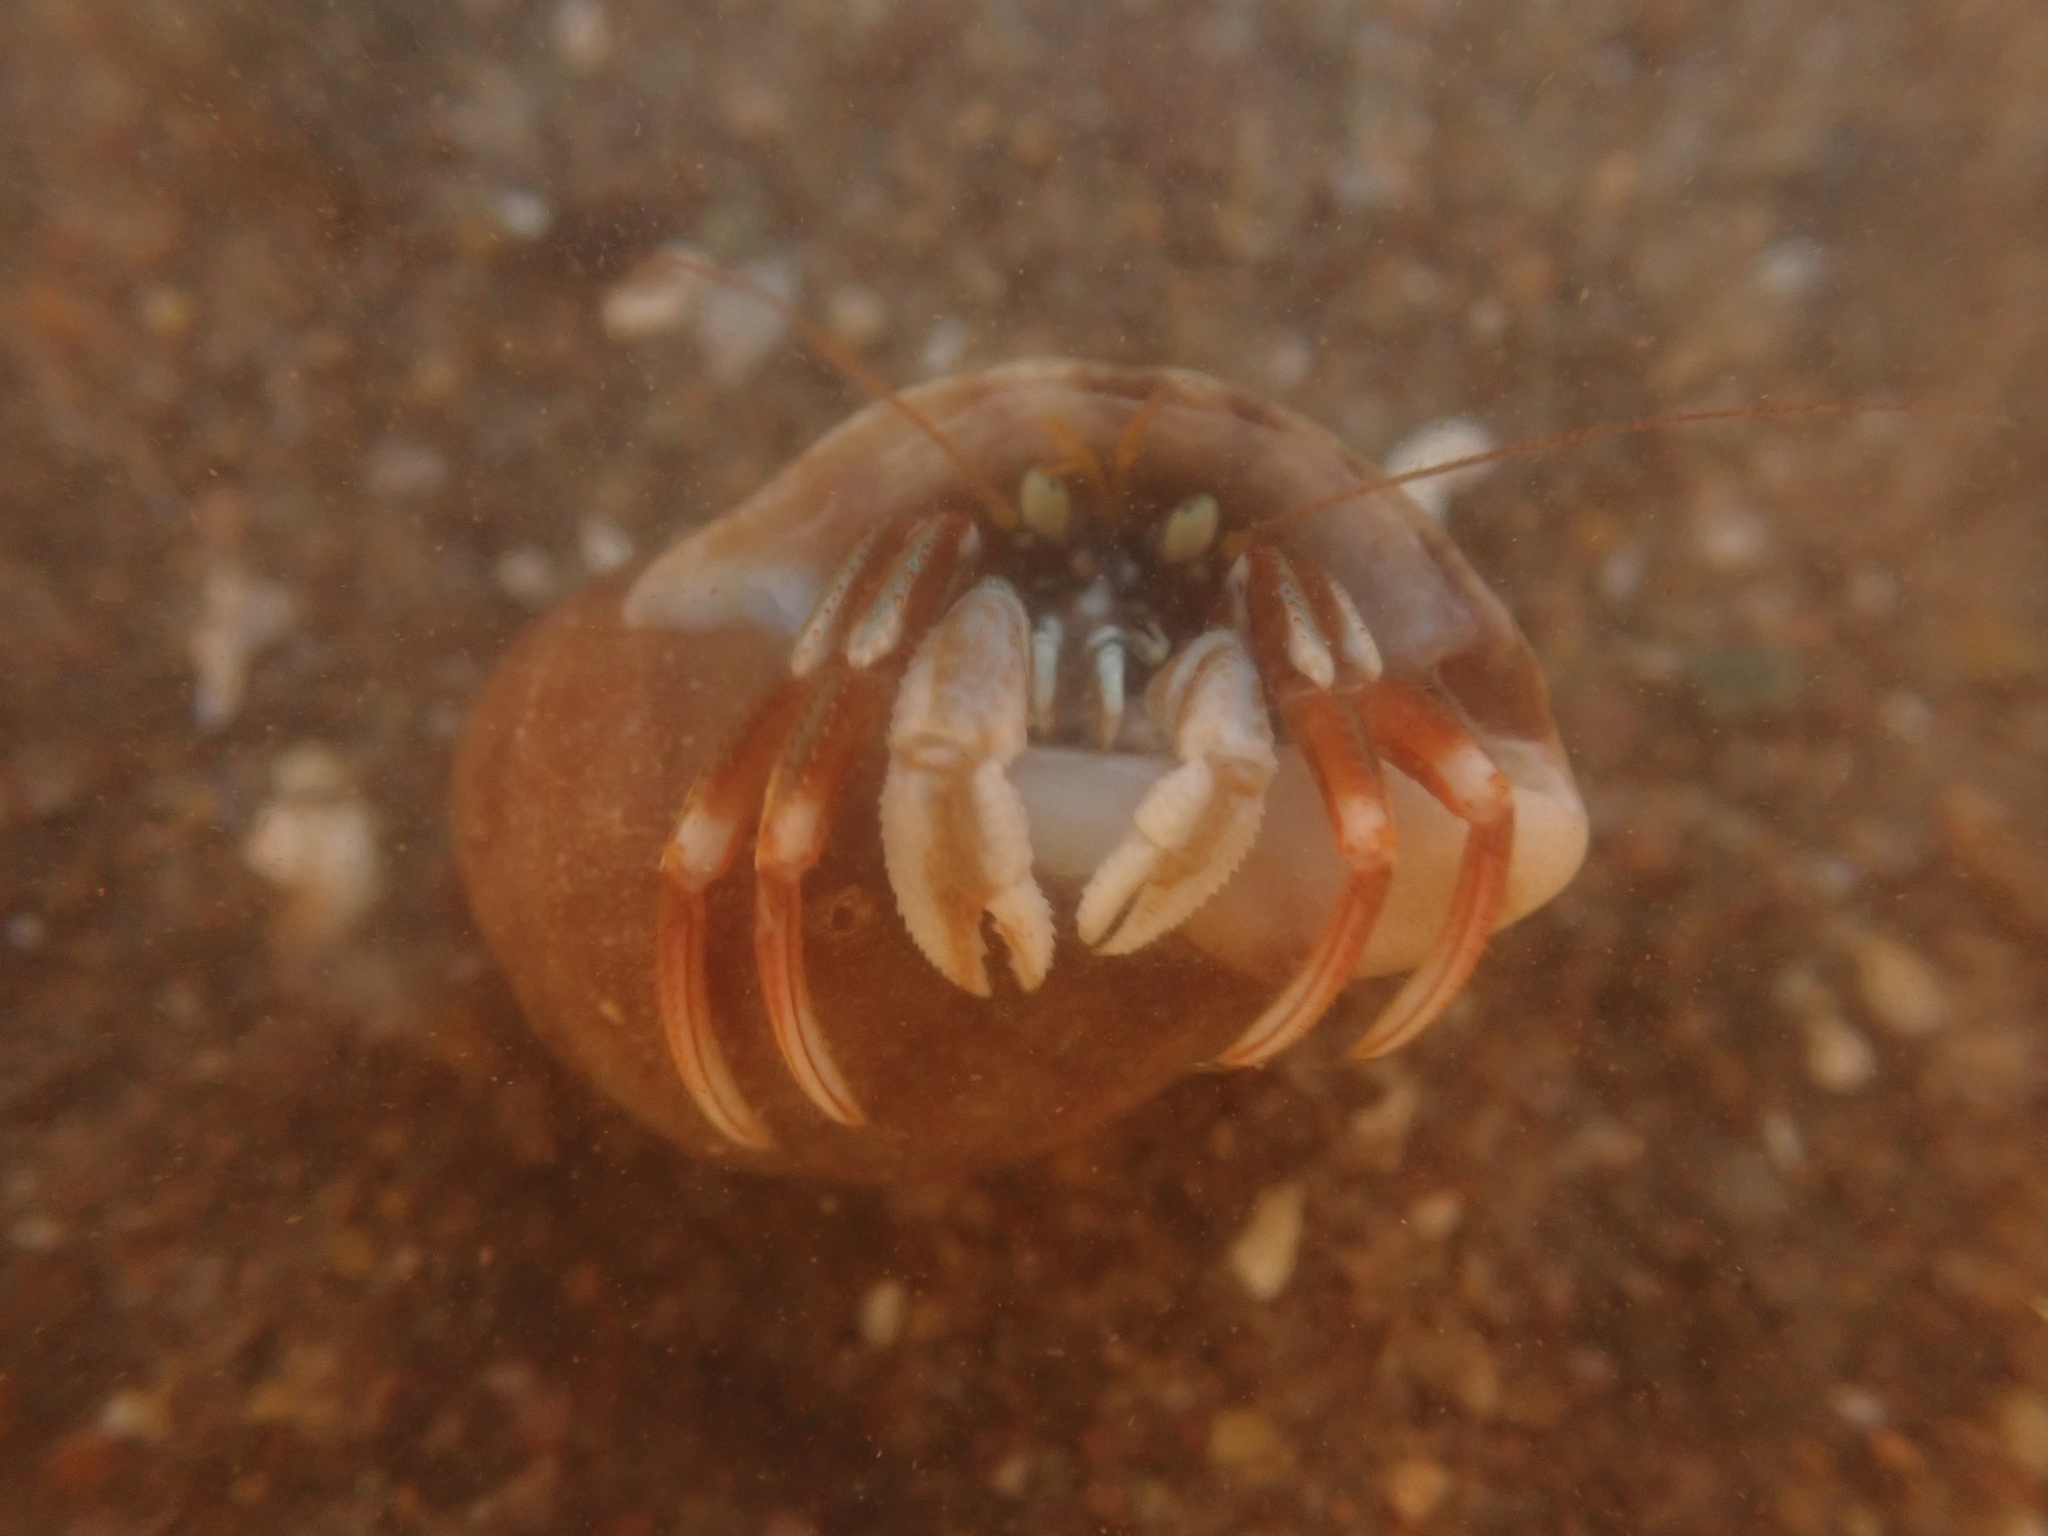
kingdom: Animalia
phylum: Arthropoda
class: Malacostraca
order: Decapoda
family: Paguridae
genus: Pagurus
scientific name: Pagurus acadianus
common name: Acadian hermit crab
